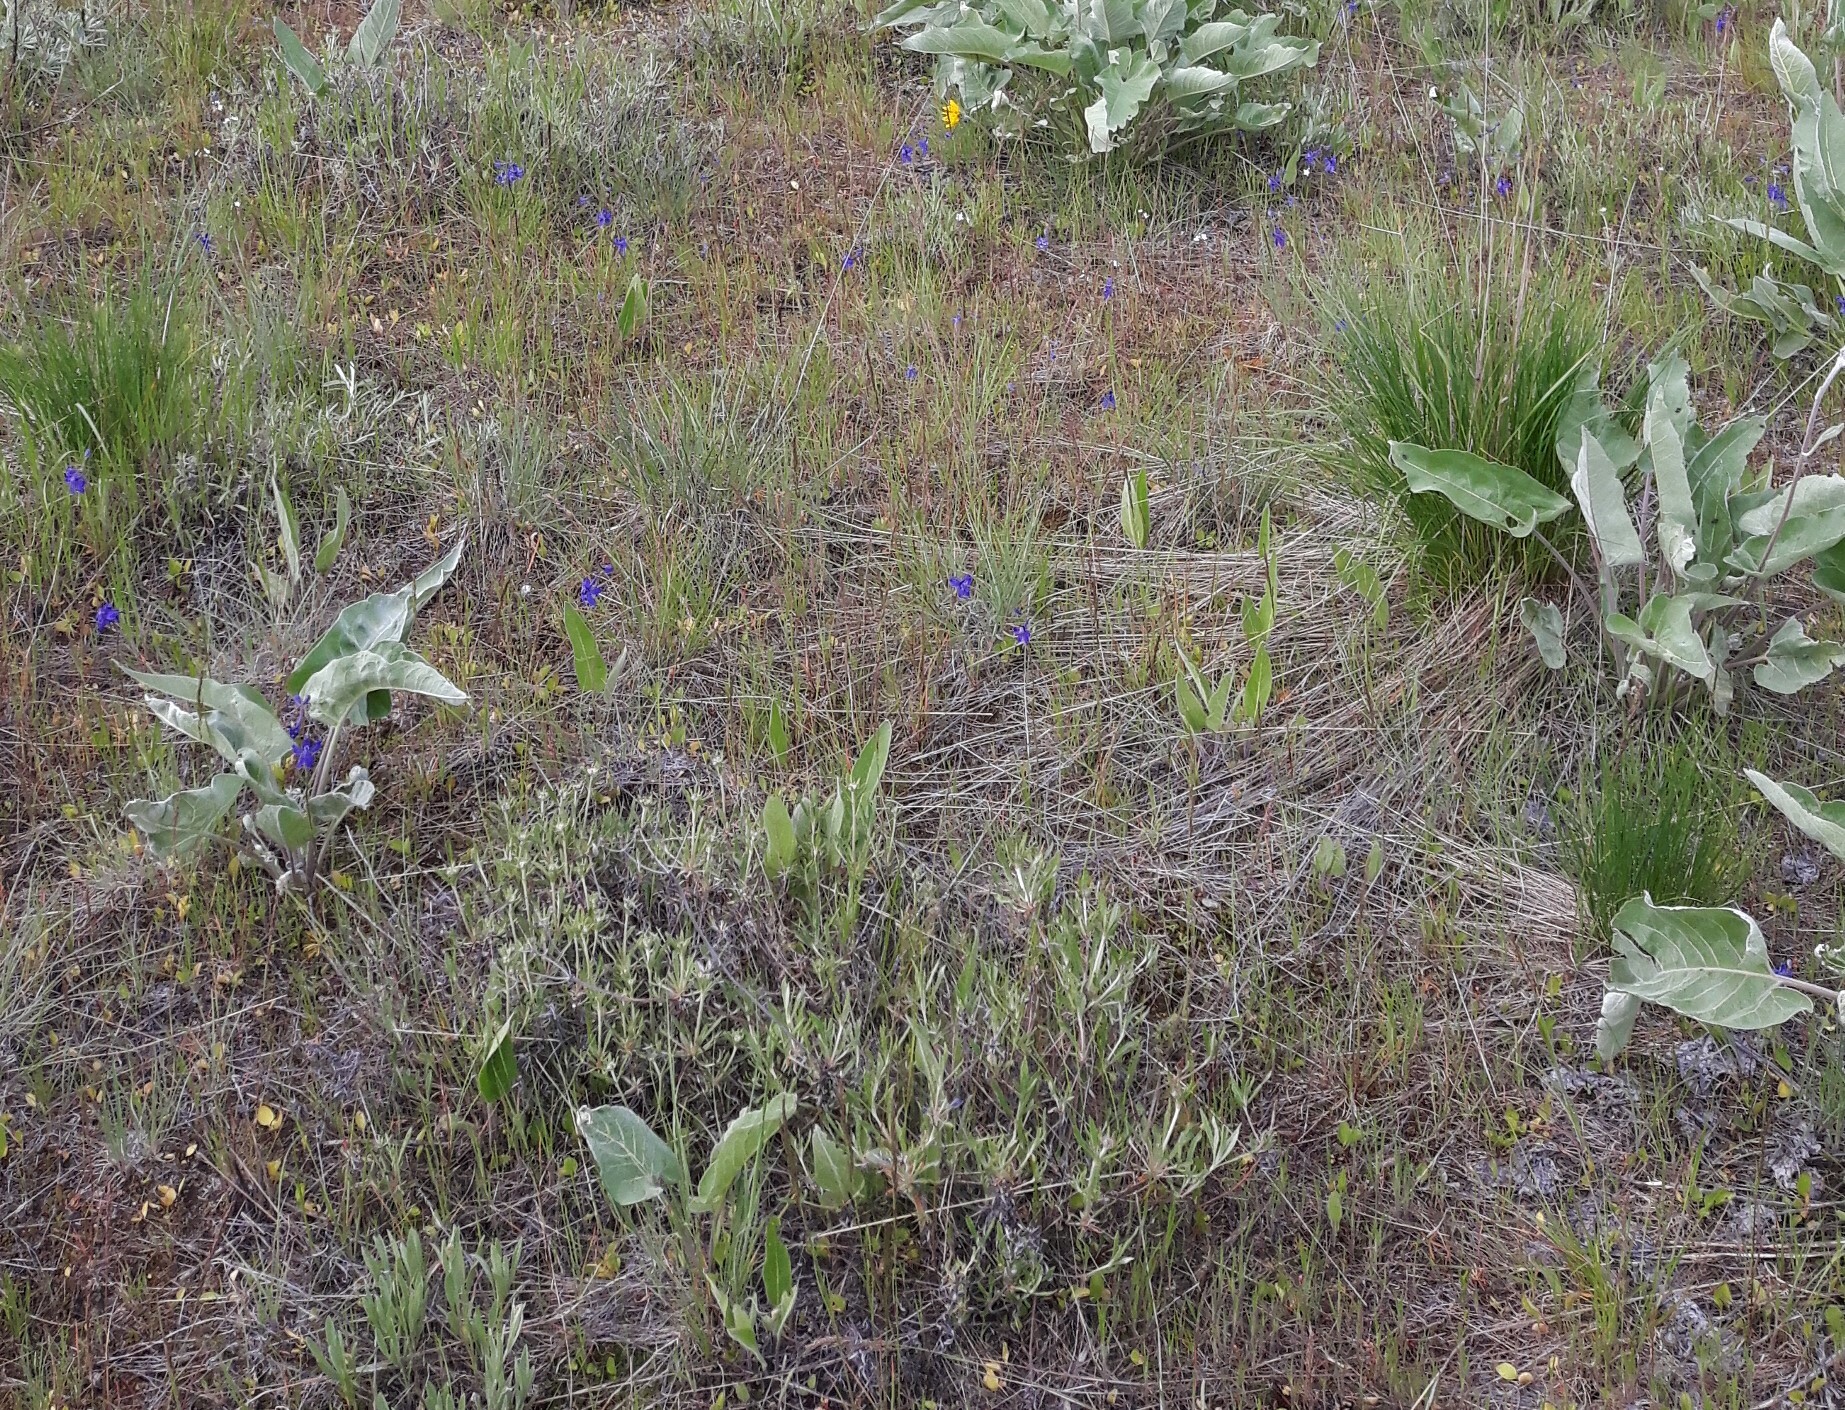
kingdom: Plantae
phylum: Tracheophyta
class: Magnoliopsida
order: Ranunculales
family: Ranunculaceae
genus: Delphinium
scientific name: Delphinium nuttallianum
